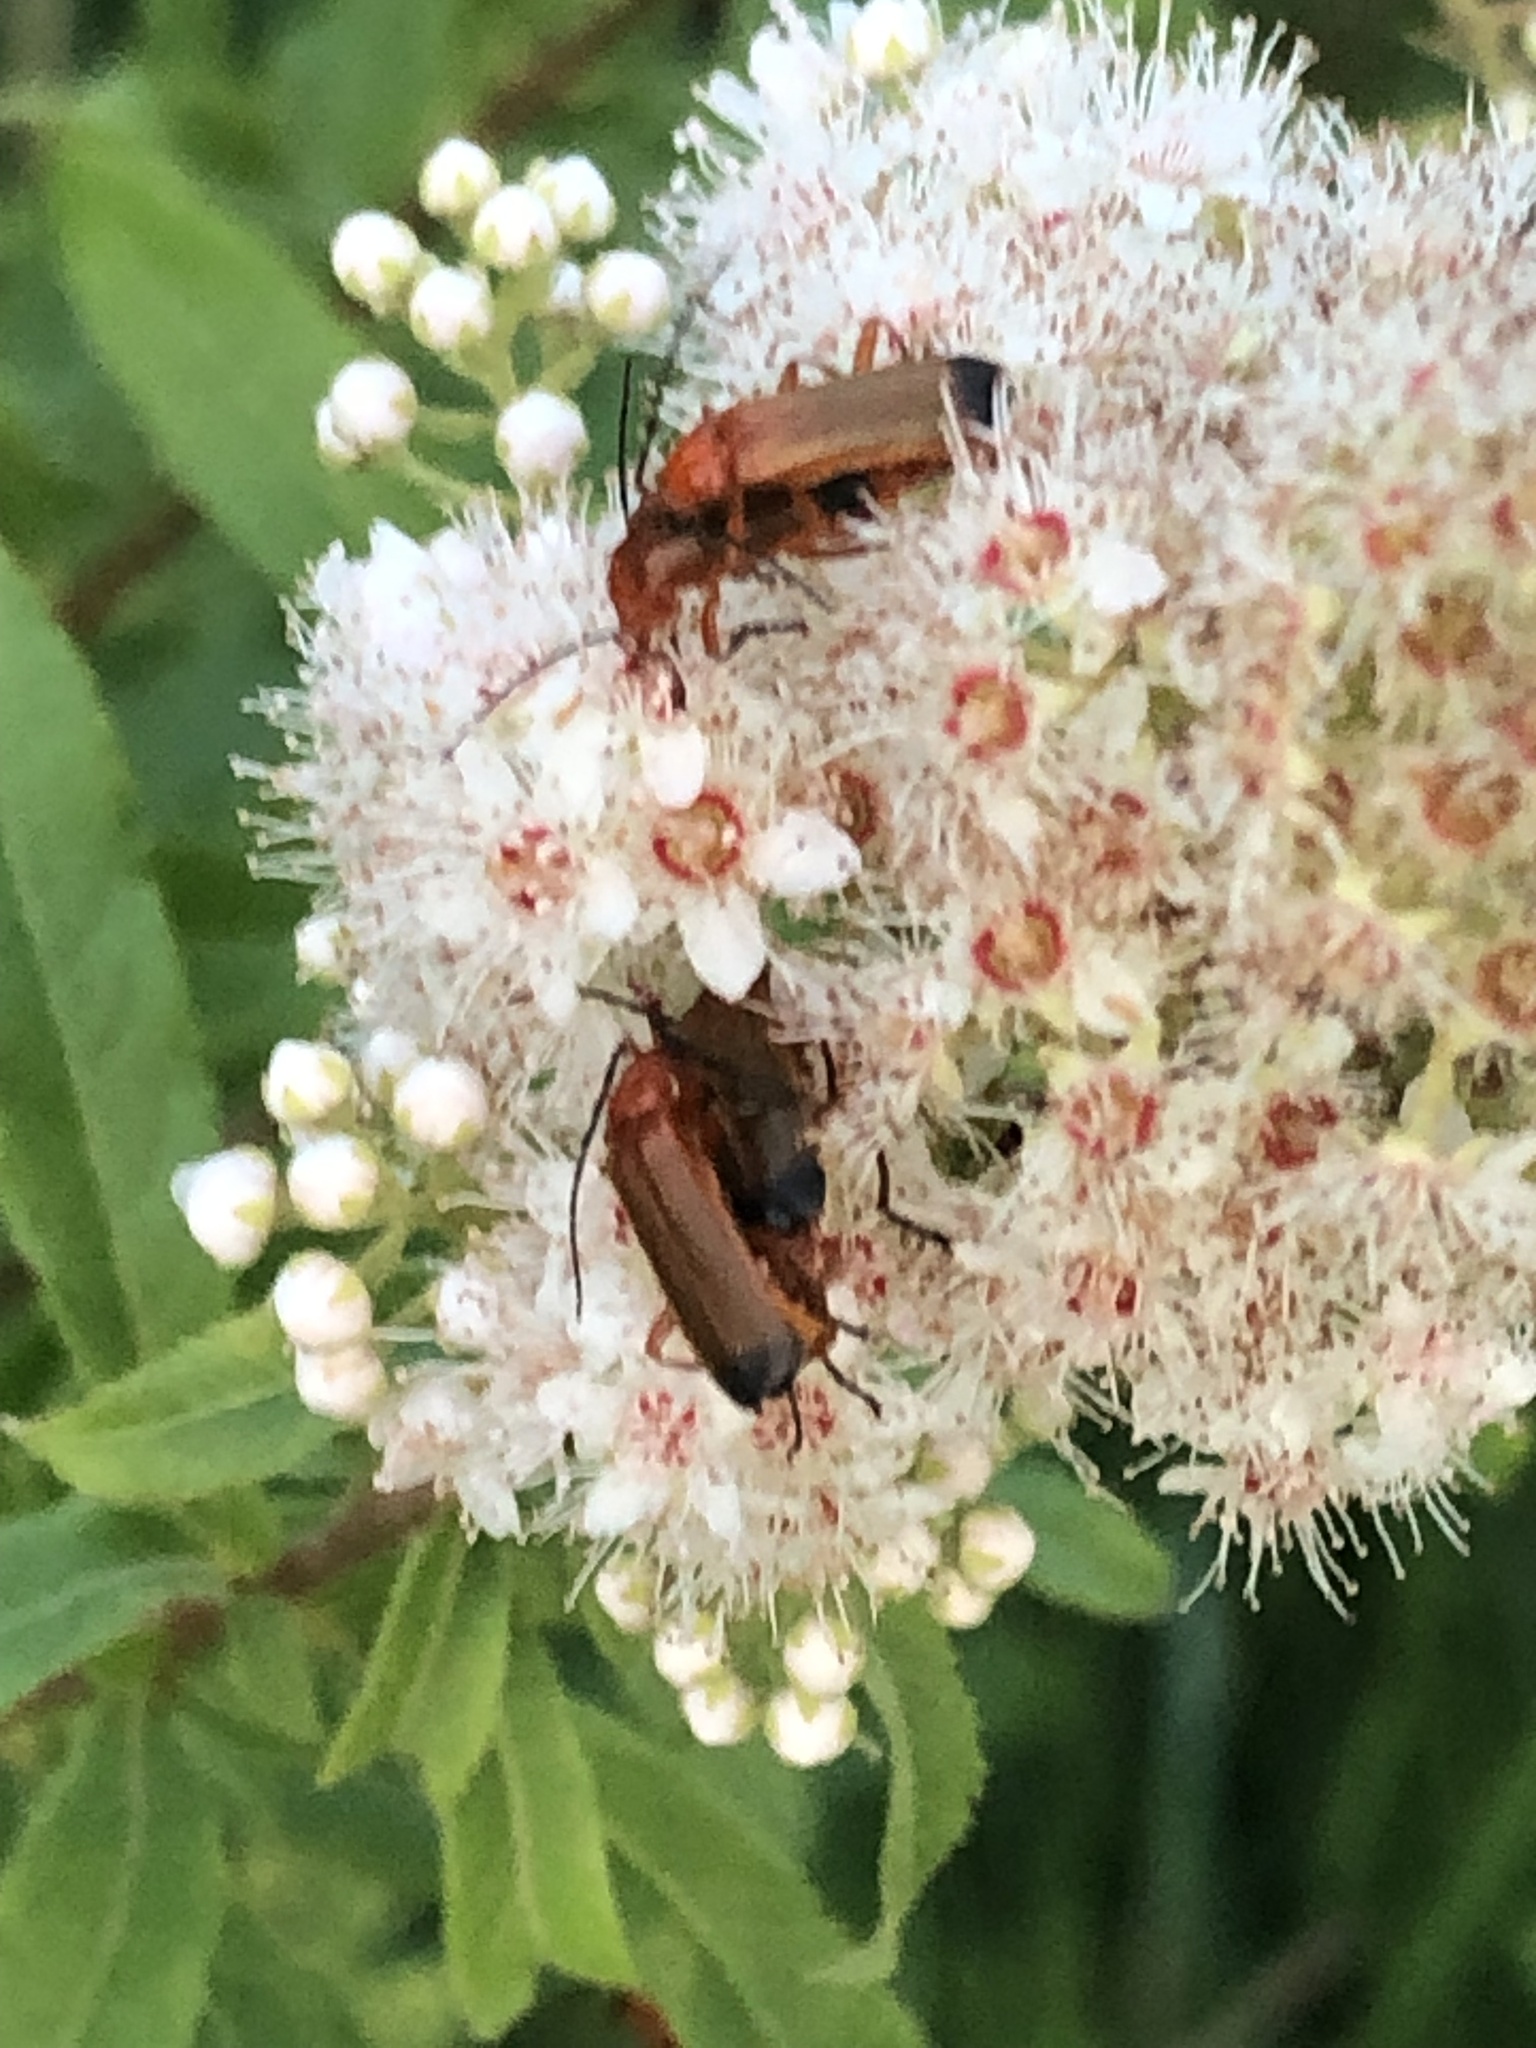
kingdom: Animalia
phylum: Arthropoda
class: Insecta
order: Coleoptera
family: Cantharidae
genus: Rhagonycha
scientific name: Rhagonycha fulva
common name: Common red soldier beetle
